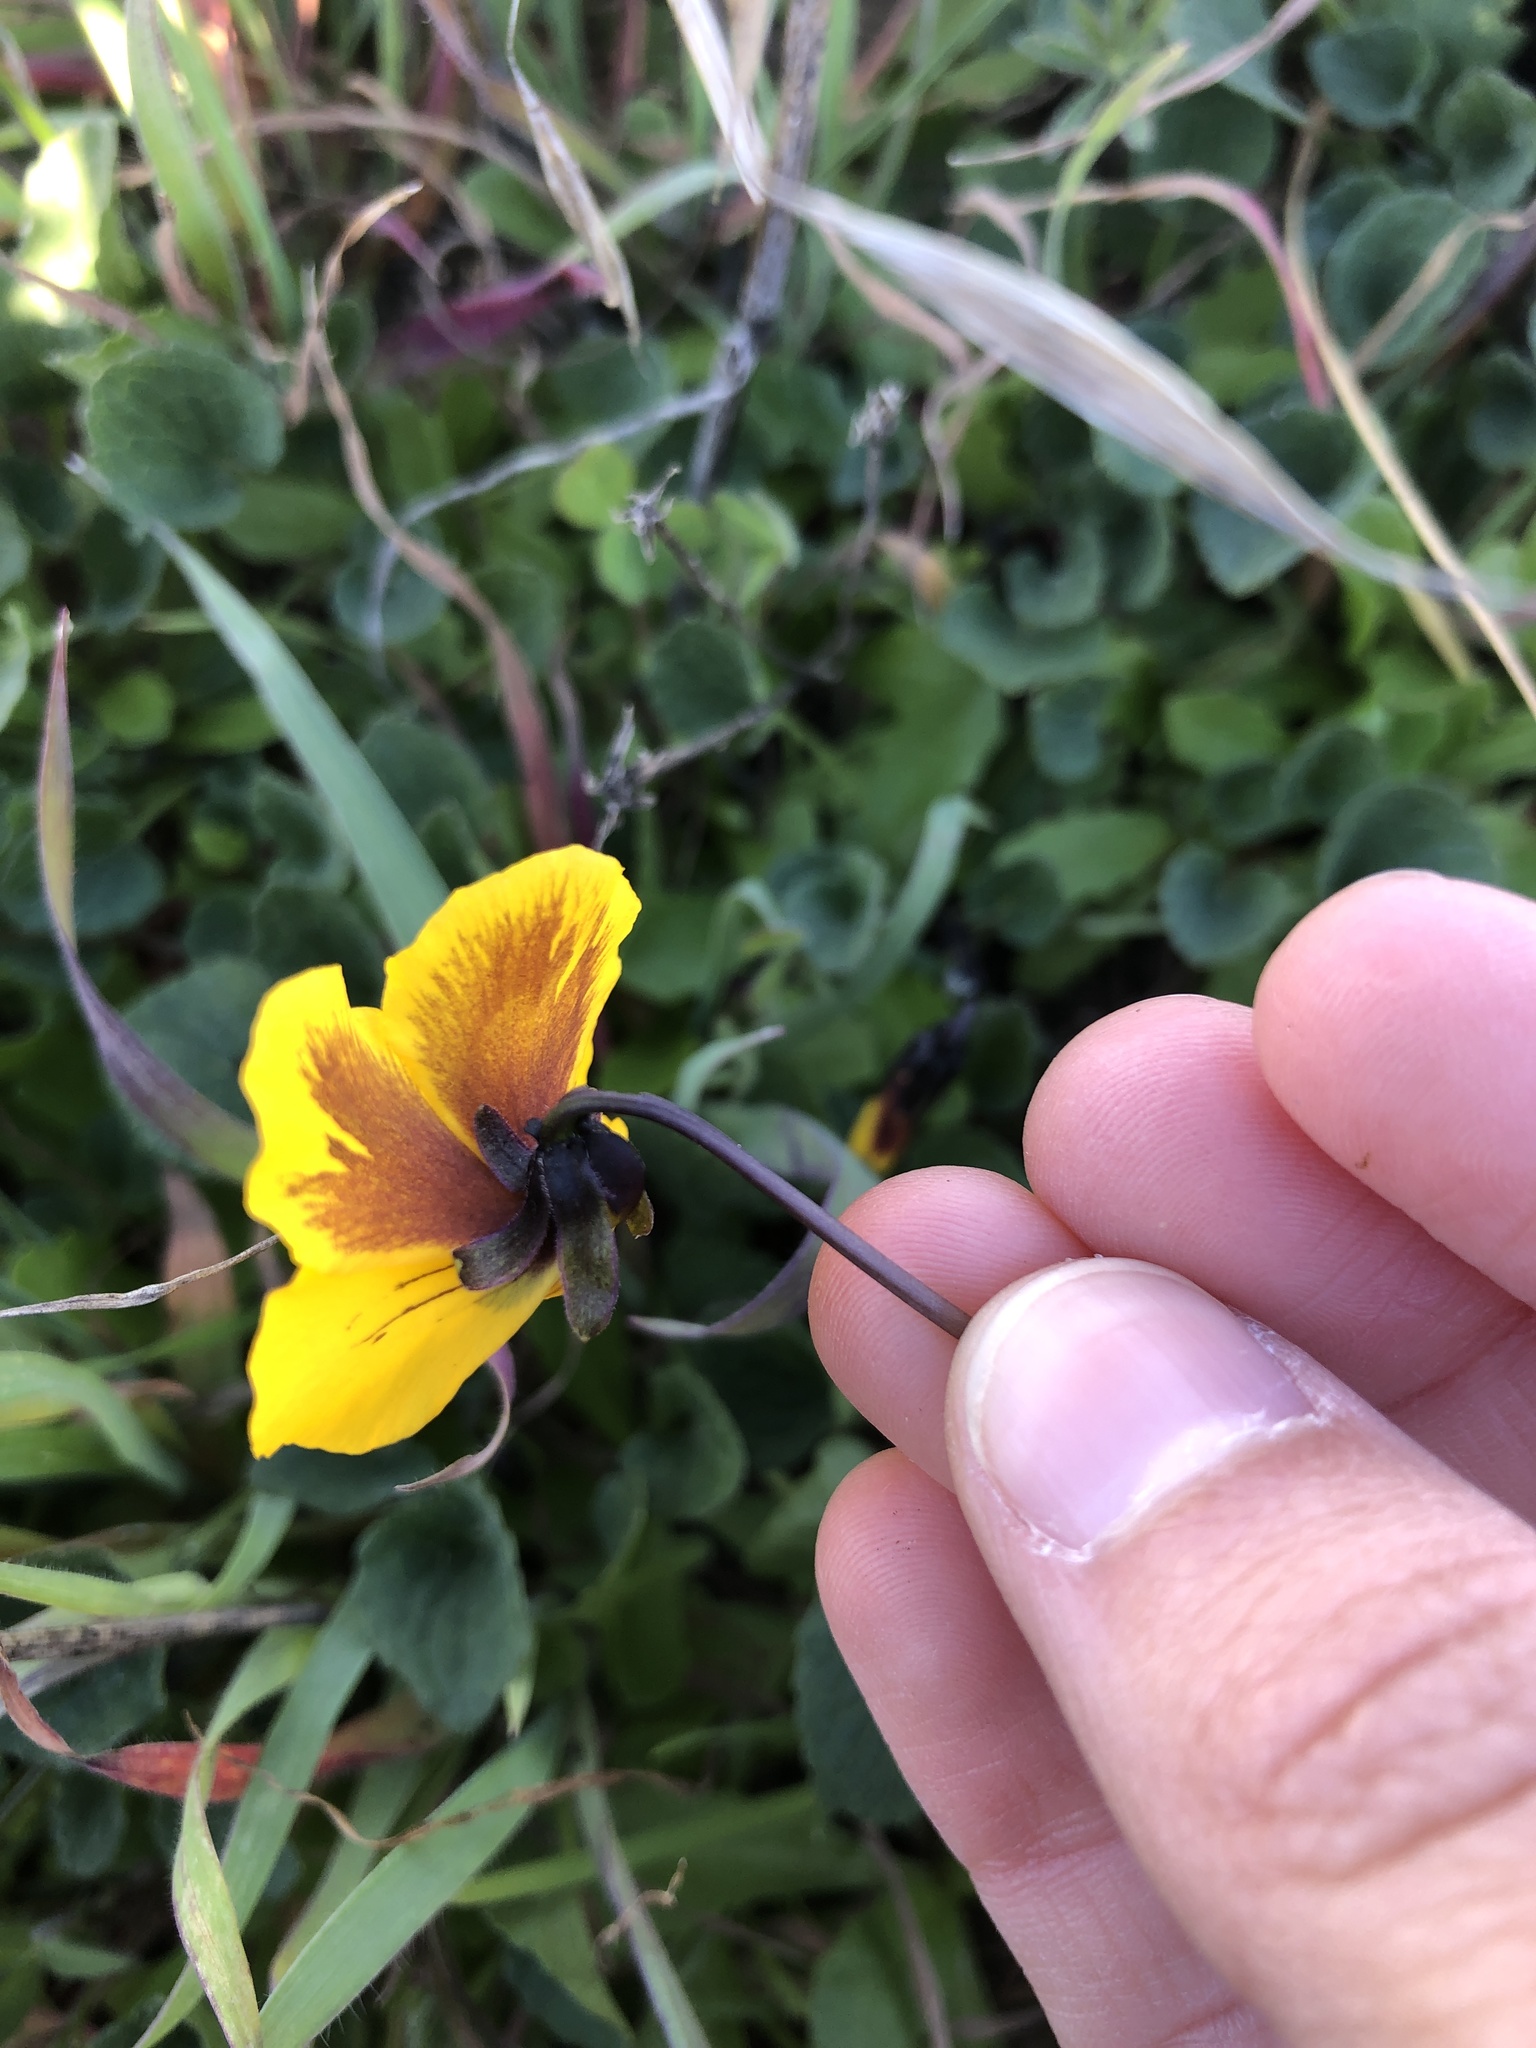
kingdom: Plantae
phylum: Tracheophyta
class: Magnoliopsida
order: Malpighiales
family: Violaceae
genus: Viola
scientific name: Viola pedunculata
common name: California golden violet
